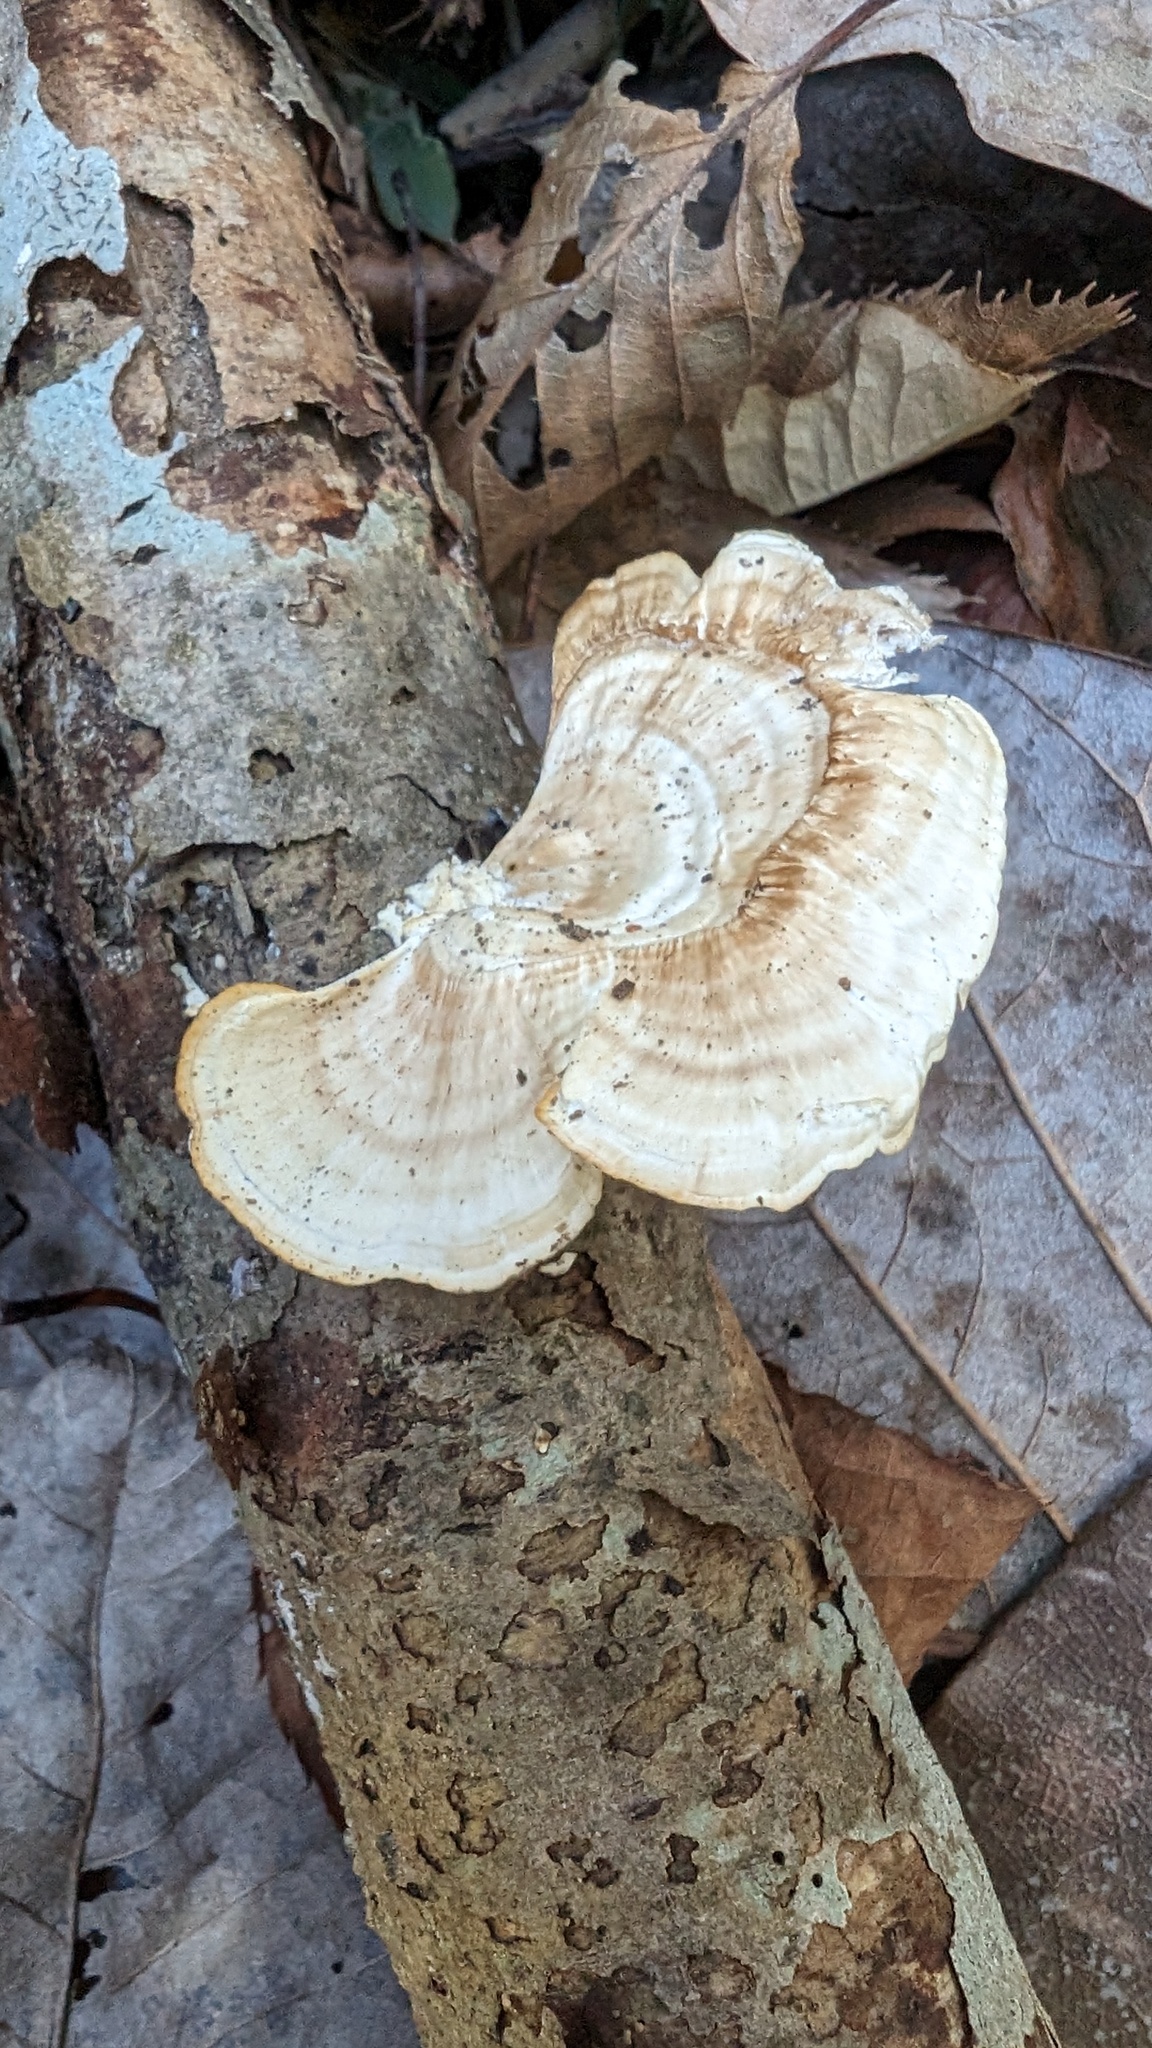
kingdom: Fungi
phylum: Basidiomycota
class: Agaricomycetes
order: Polyporales
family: Polyporaceae
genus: Trametes
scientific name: Trametes vernicipes
